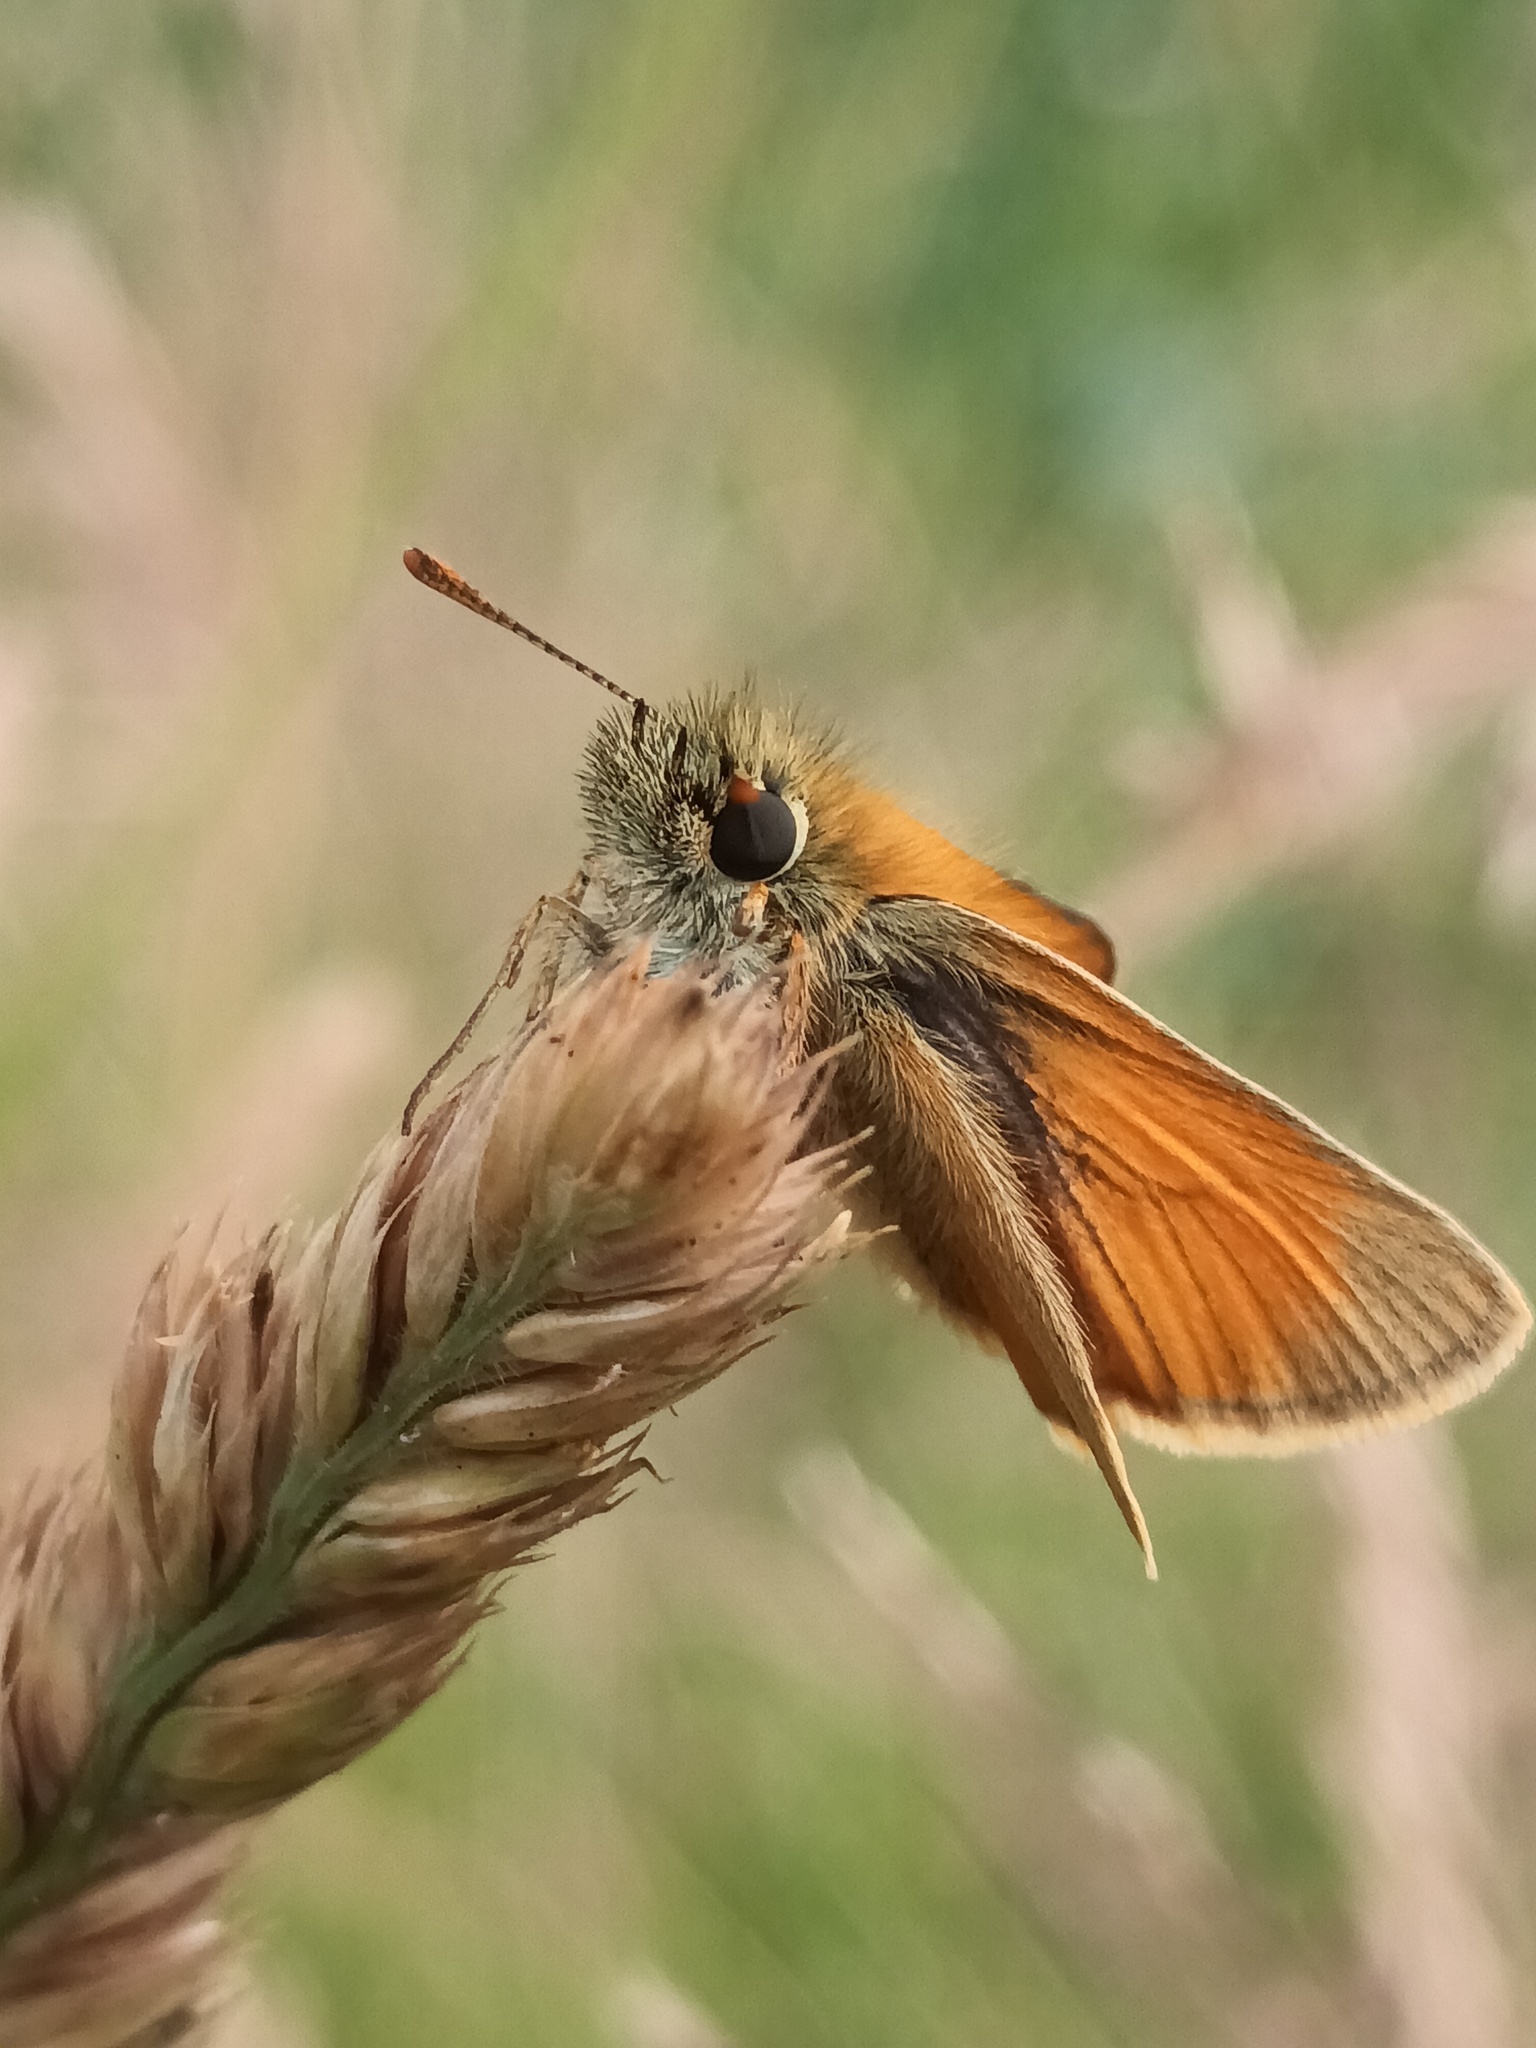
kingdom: Animalia
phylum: Arthropoda
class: Insecta
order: Lepidoptera
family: Hesperiidae
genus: Thymelicus
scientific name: Thymelicus sylvestris
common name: Small skipper
